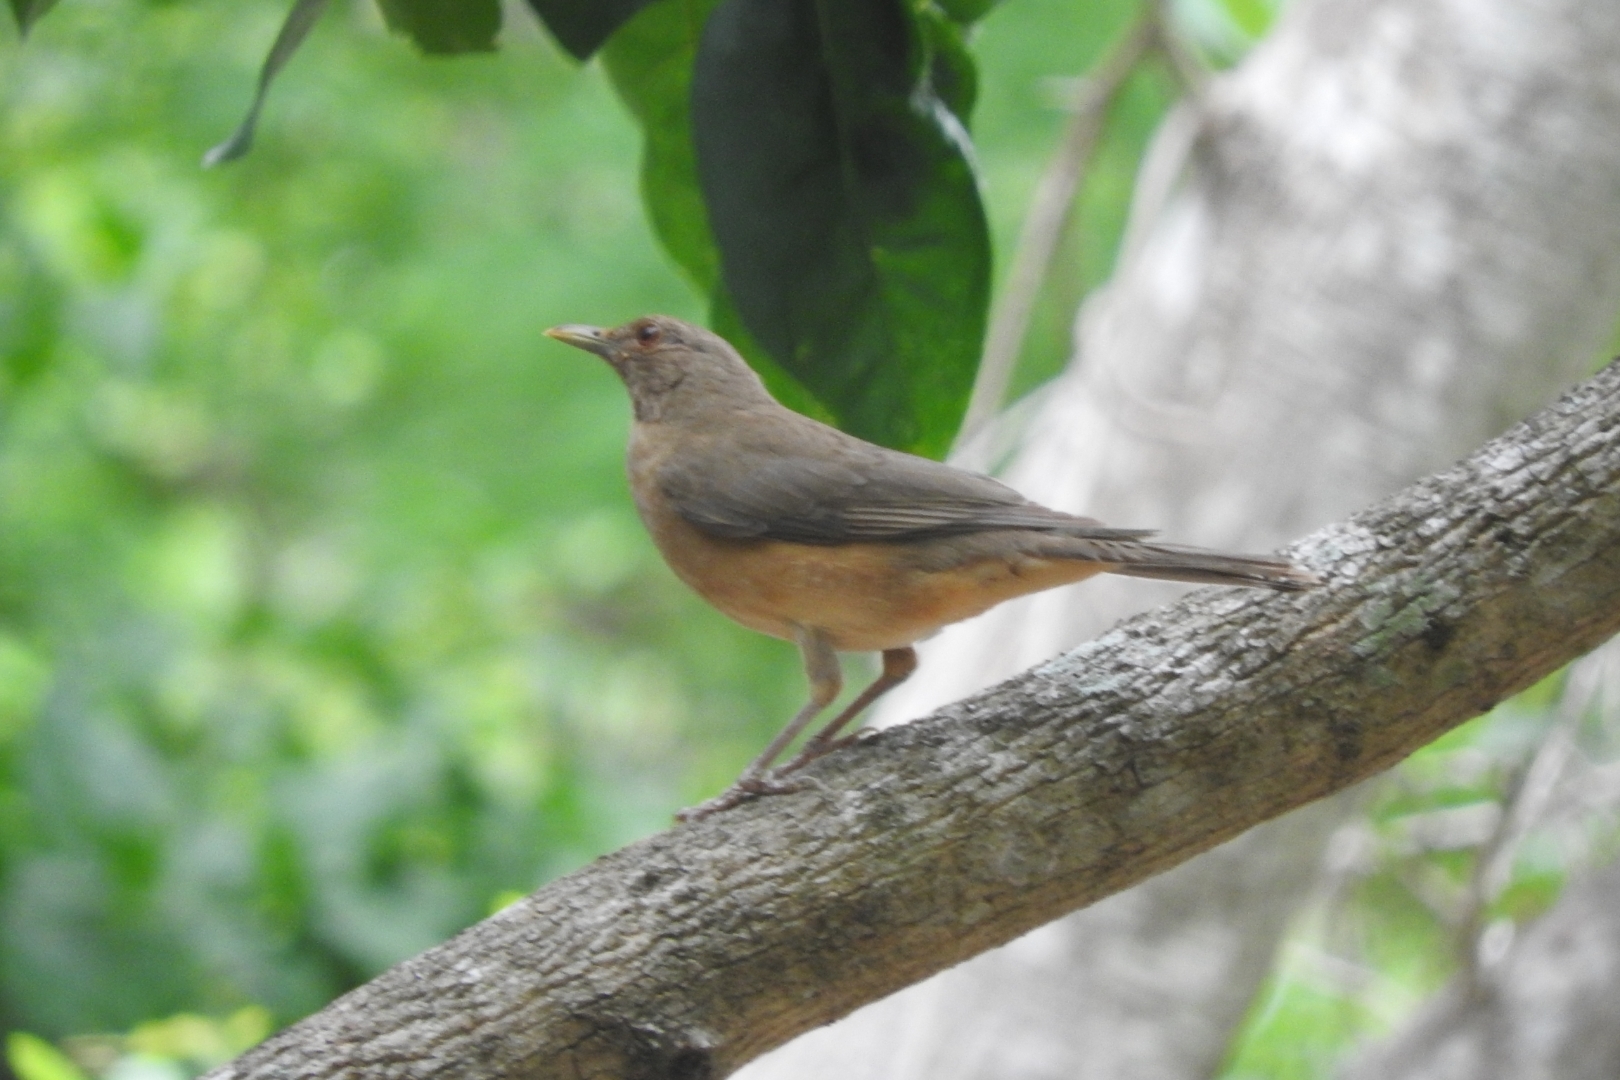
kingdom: Animalia
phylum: Chordata
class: Aves
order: Passeriformes
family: Turdidae
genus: Turdus
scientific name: Turdus grayi
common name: Clay-colored thrush
